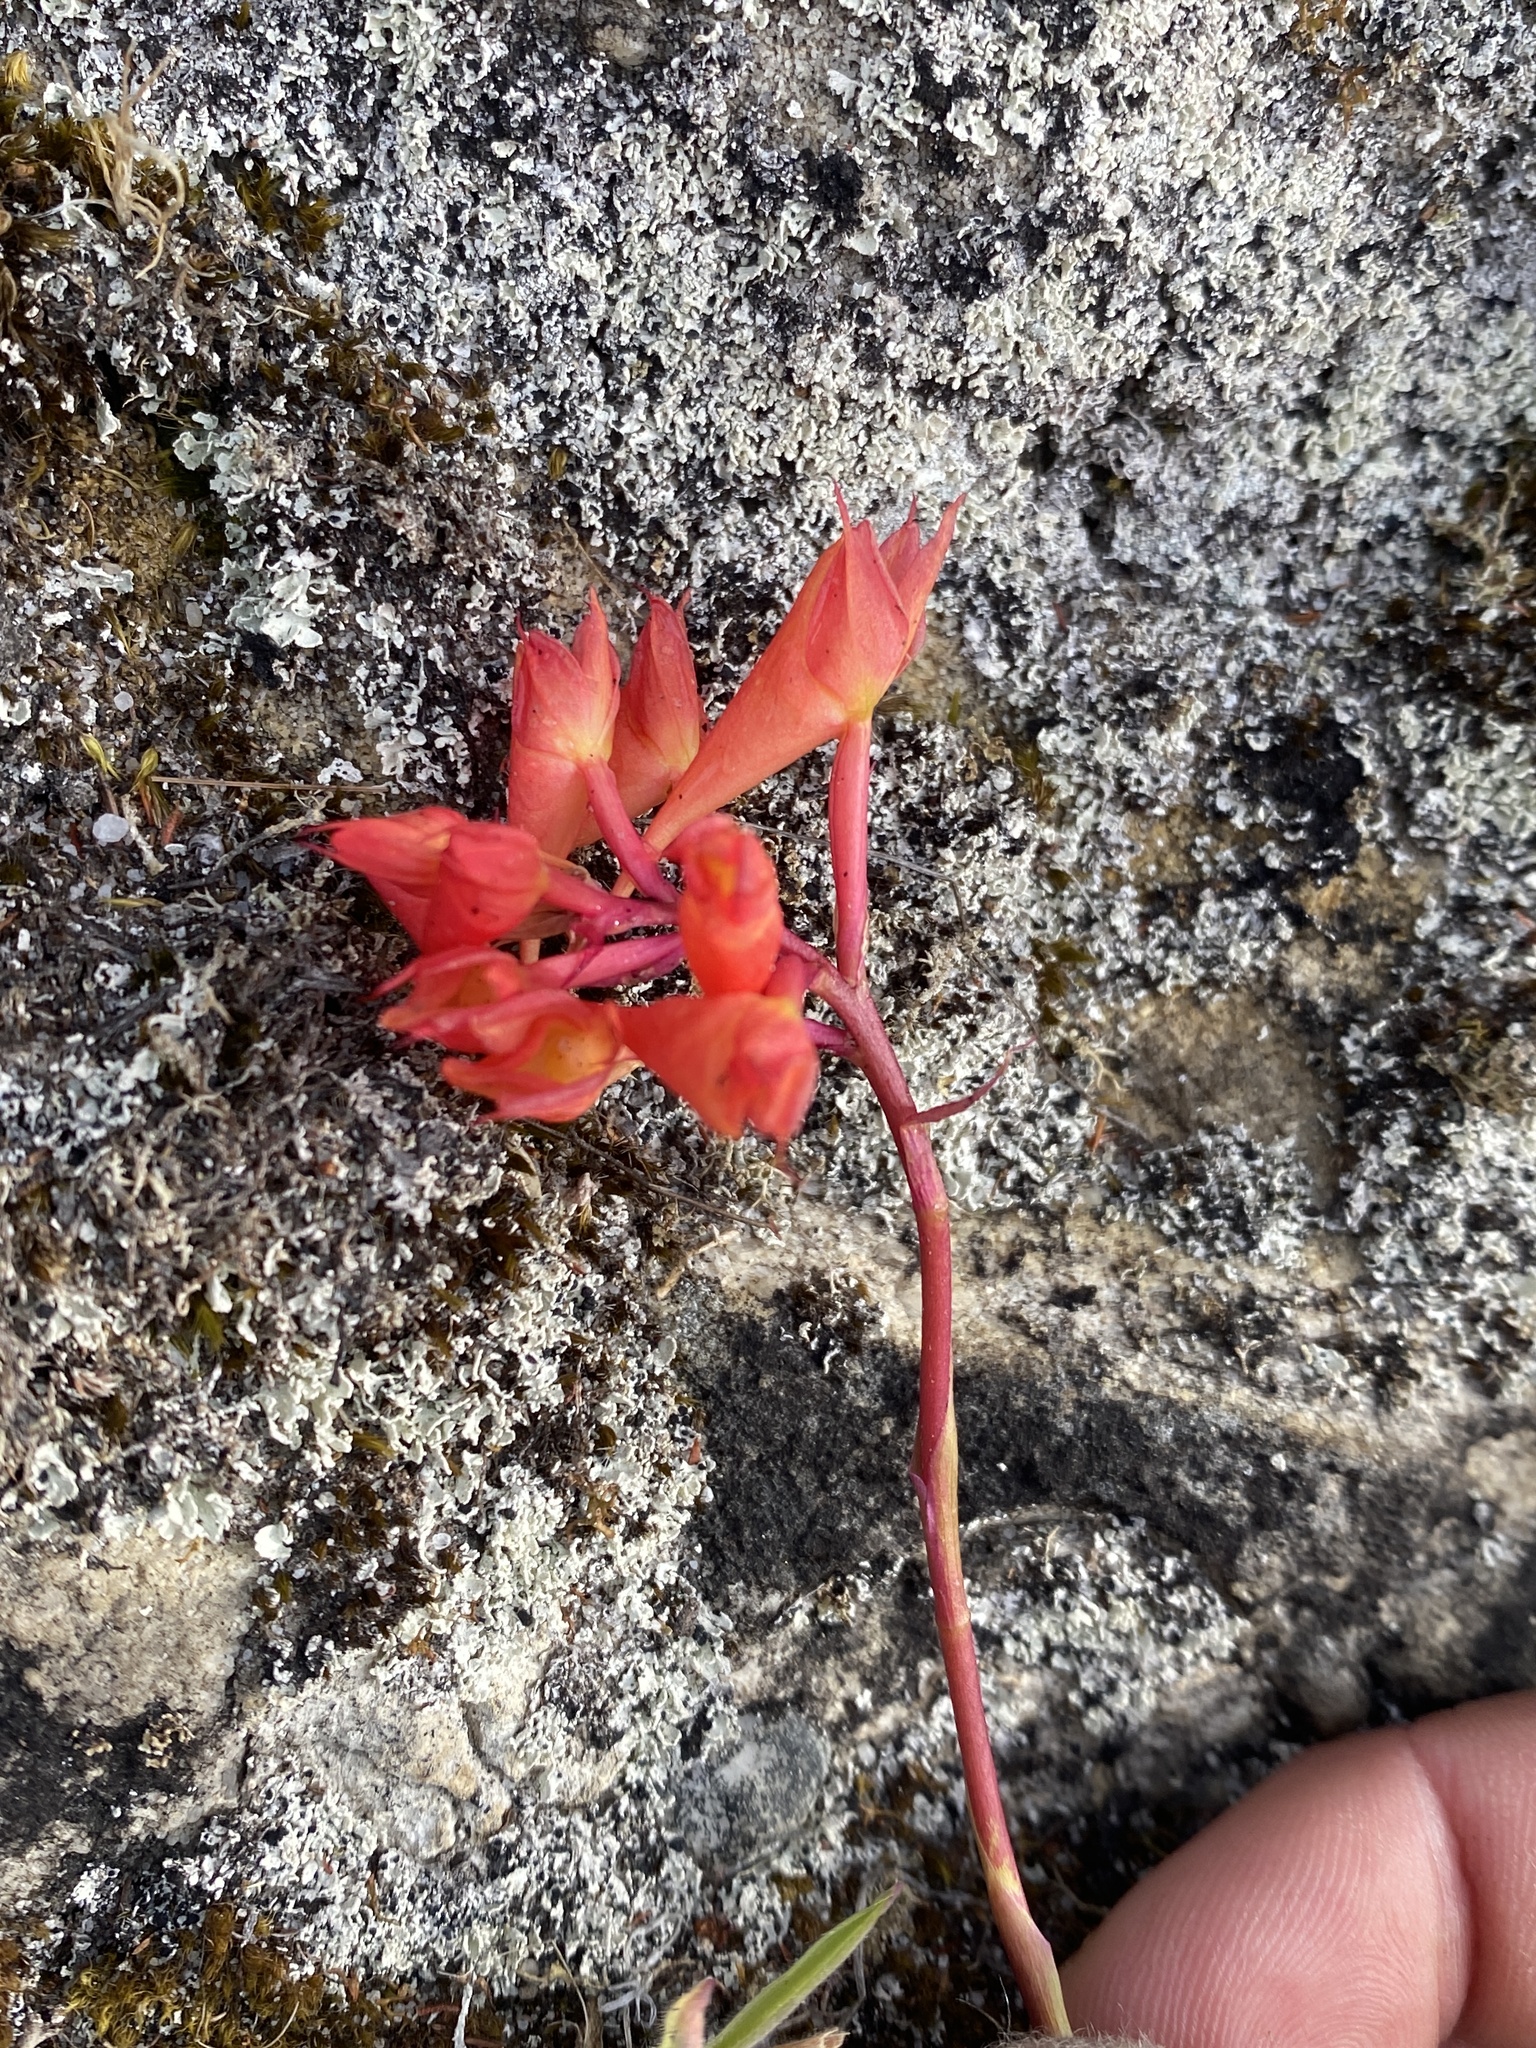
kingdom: Plantae
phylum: Tracheophyta
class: Liliopsida
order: Asparagales
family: Orchidaceae
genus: Disa
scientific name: Disa ferruginea
